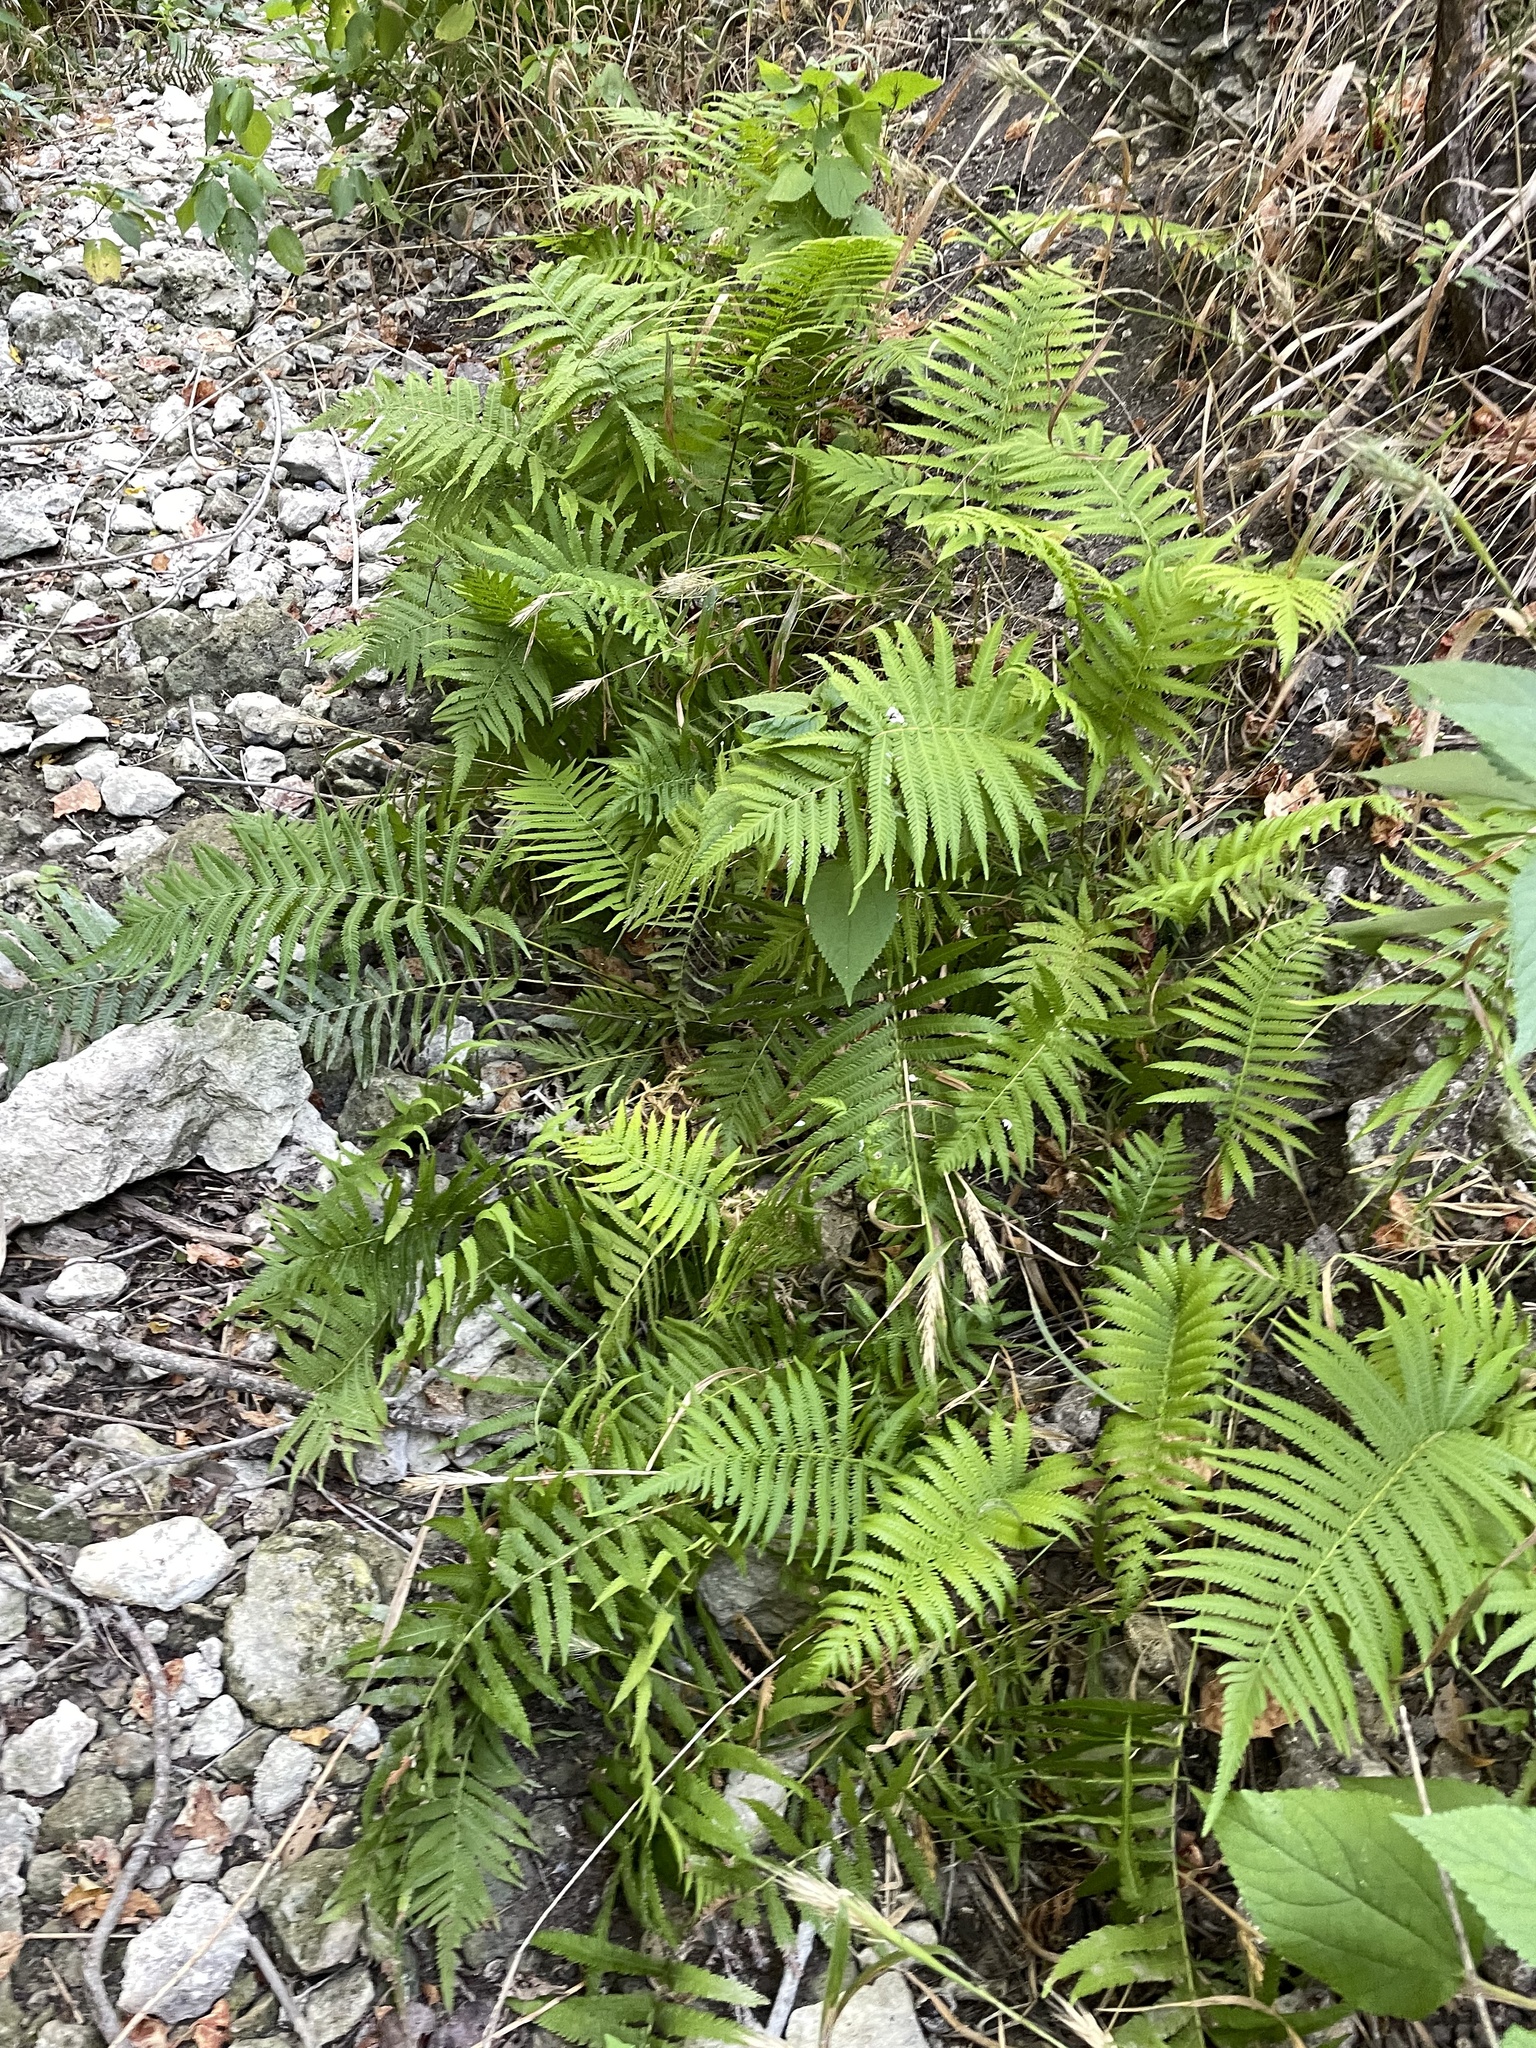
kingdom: Plantae
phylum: Tracheophyta
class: Polypodiopsida
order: Polypodiales
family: Thelypteridaceae
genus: Pelazoneuron
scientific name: Pelazoneuron ovatum
